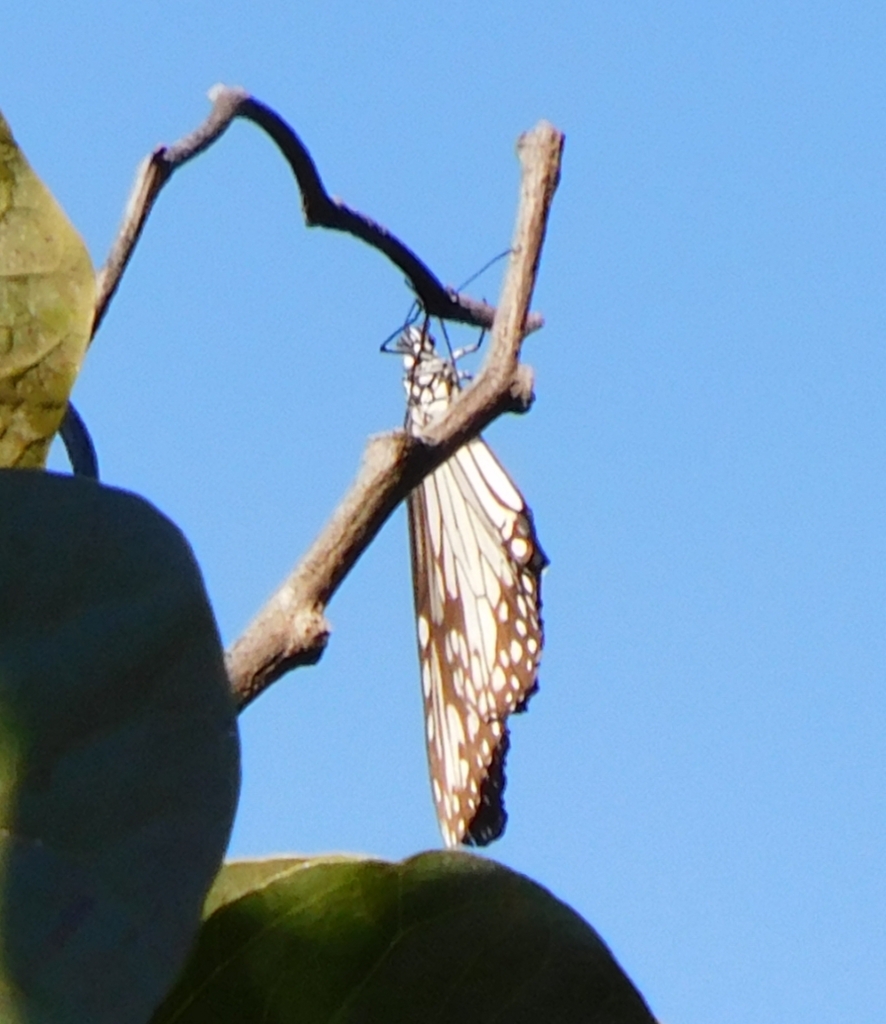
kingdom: Animalia
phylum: Arthropoda
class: Insecta
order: Lepidoptera
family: Nymphalidae
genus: Parantica
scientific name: Parantica aglea
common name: Glassy tiger
